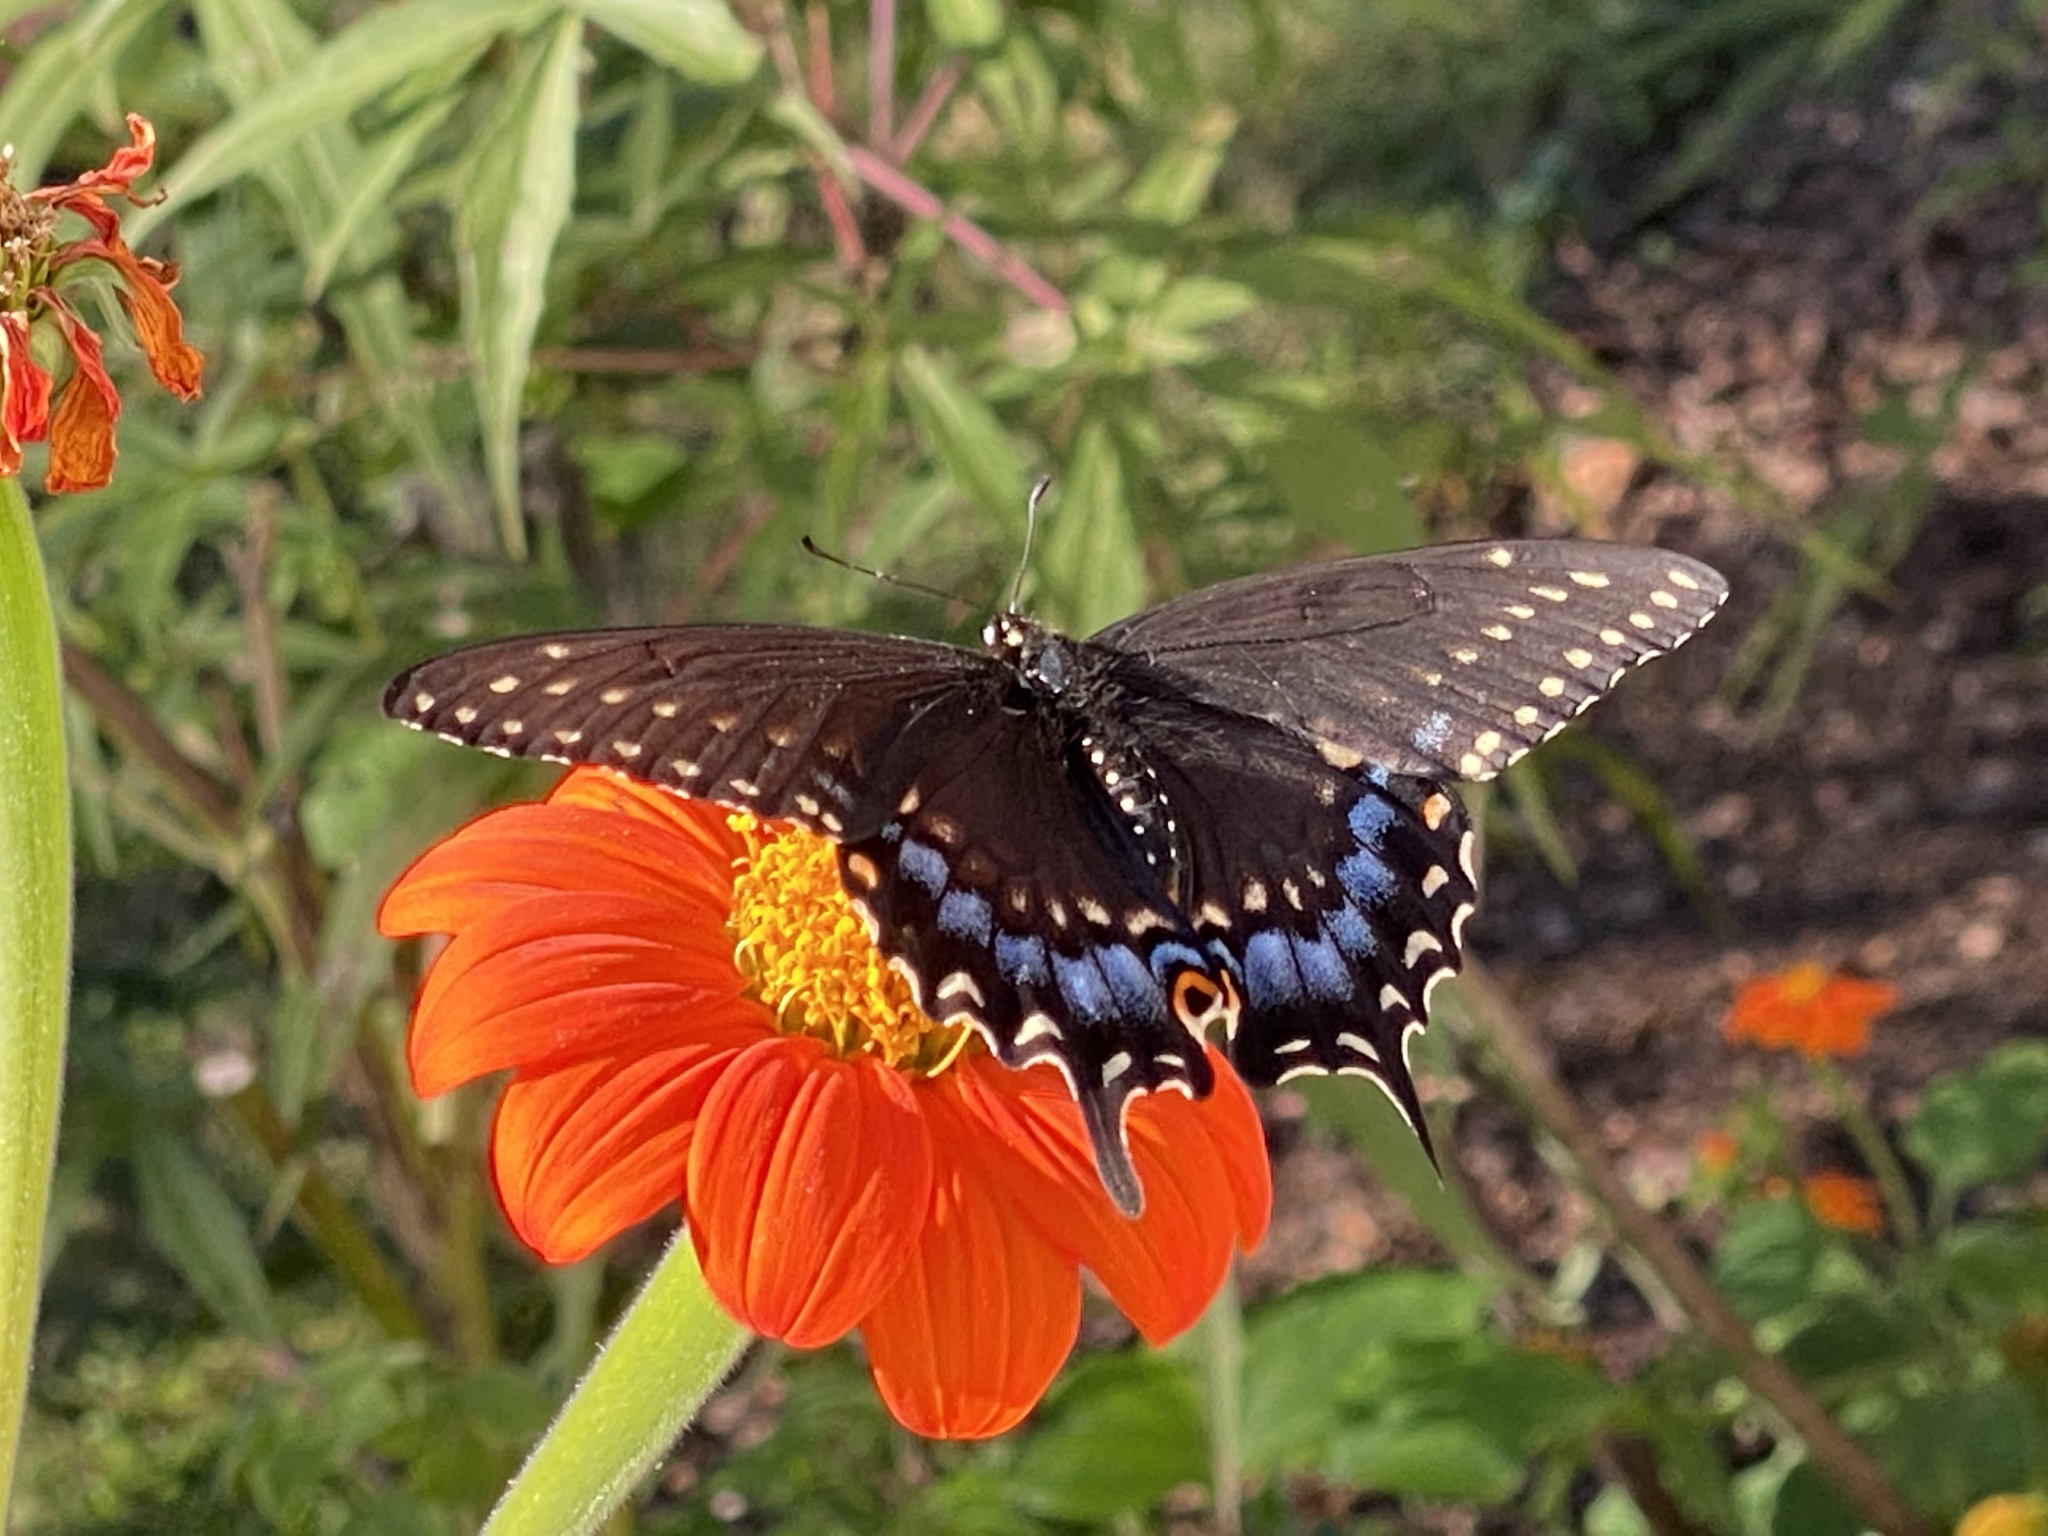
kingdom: Animalia
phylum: Arthropoda
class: Insecta
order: Lepidoptera
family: Papilionidae
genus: Papilio
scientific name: Papilio polyxenes
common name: Black swallowtail
